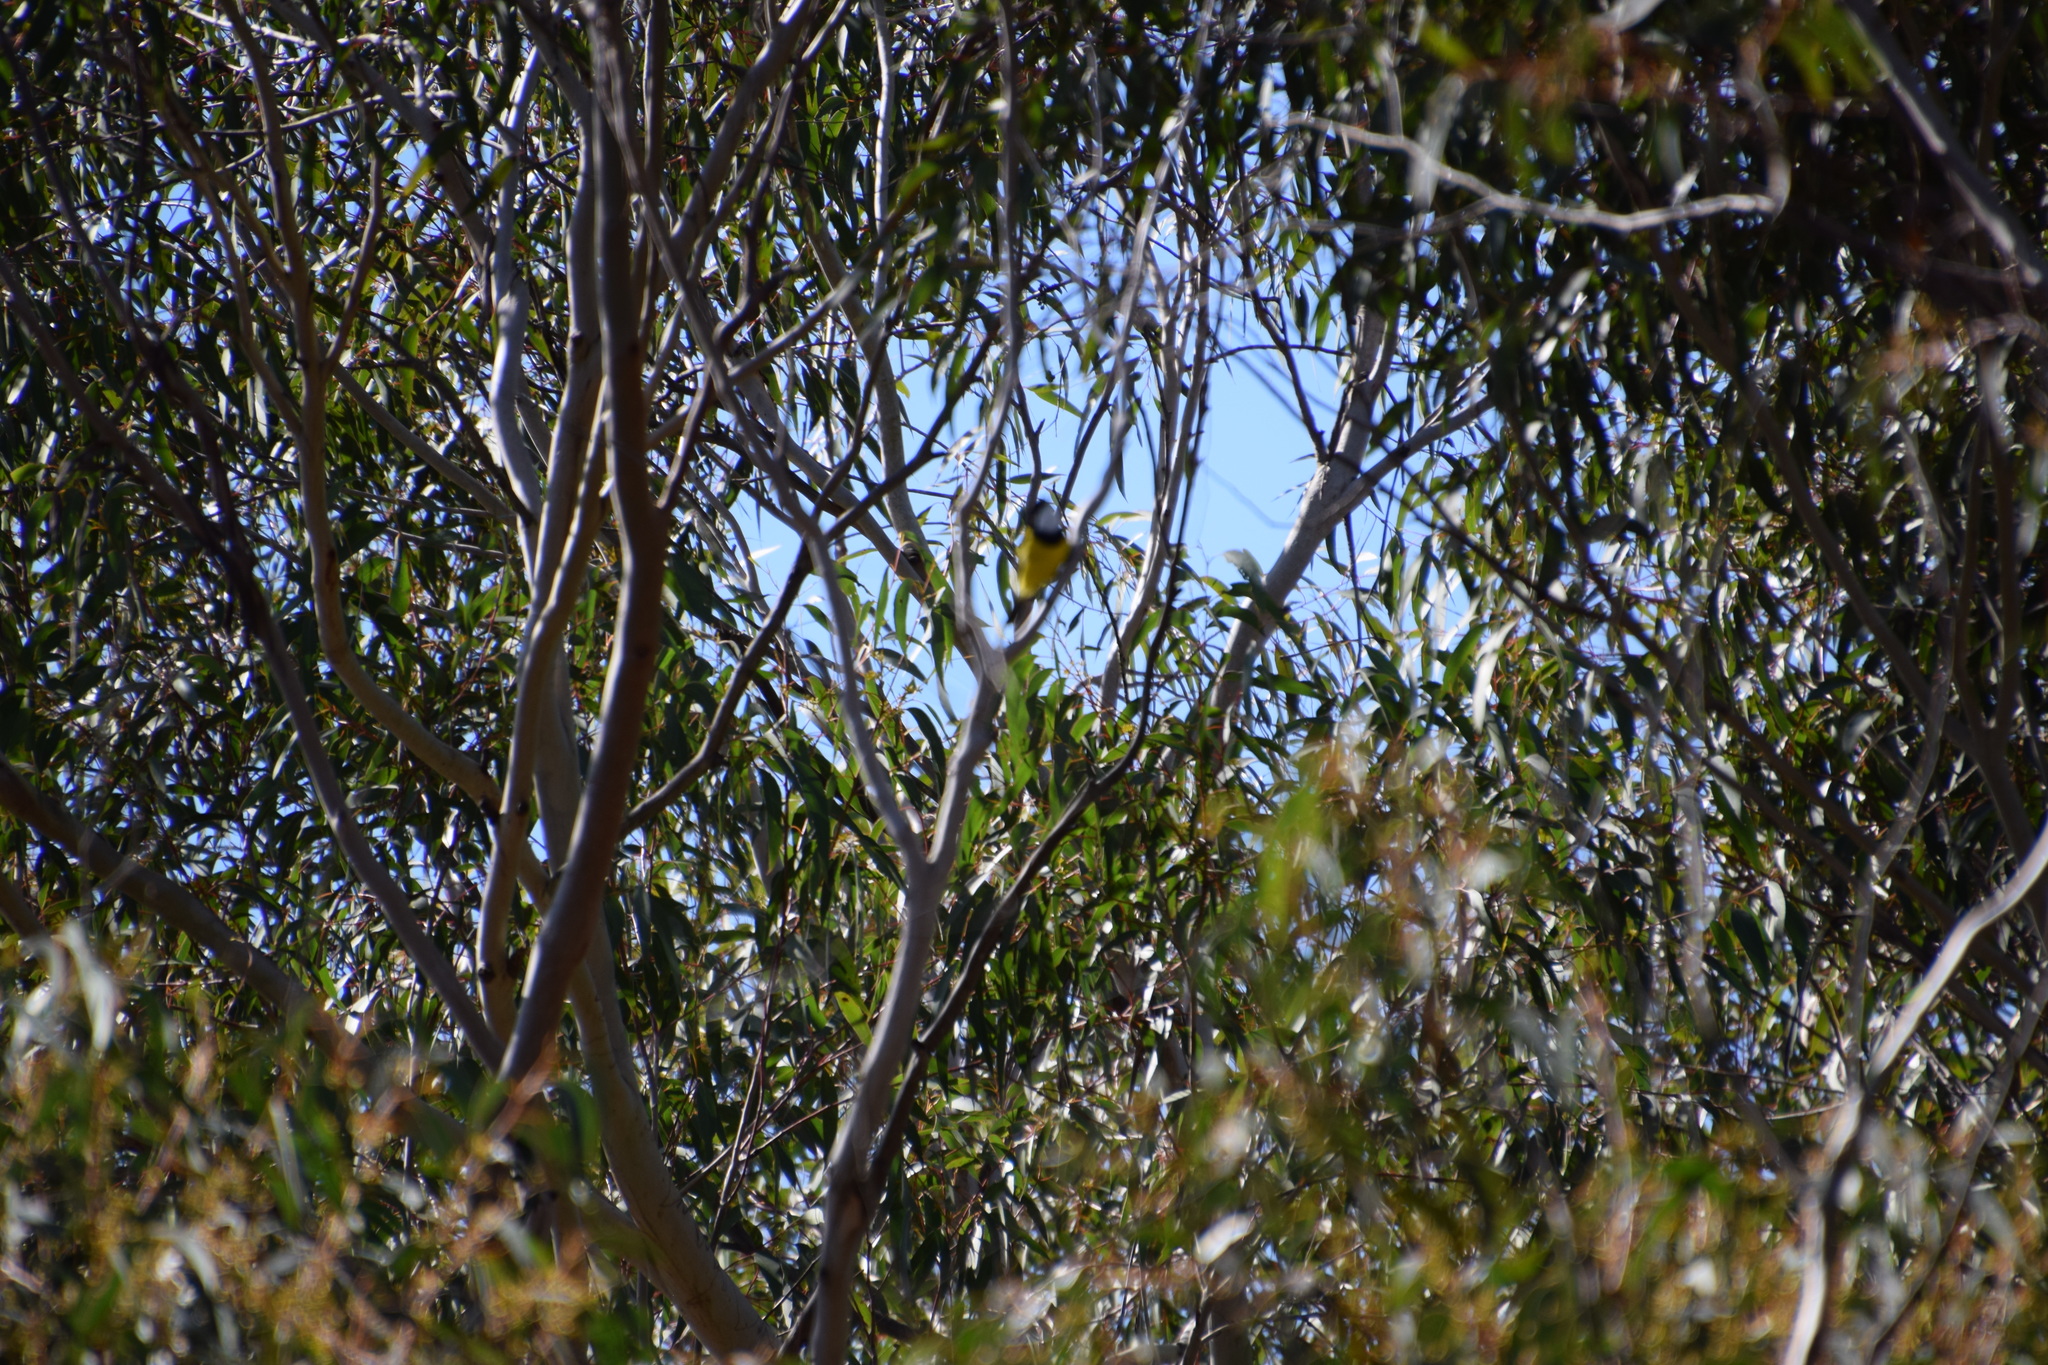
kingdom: Animalia
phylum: Chordata
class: Aves
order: Passeriformes
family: Pachycephalidae
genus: Pachycephala
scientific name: Pachycephala pectoralis
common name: Australian golden whistler
